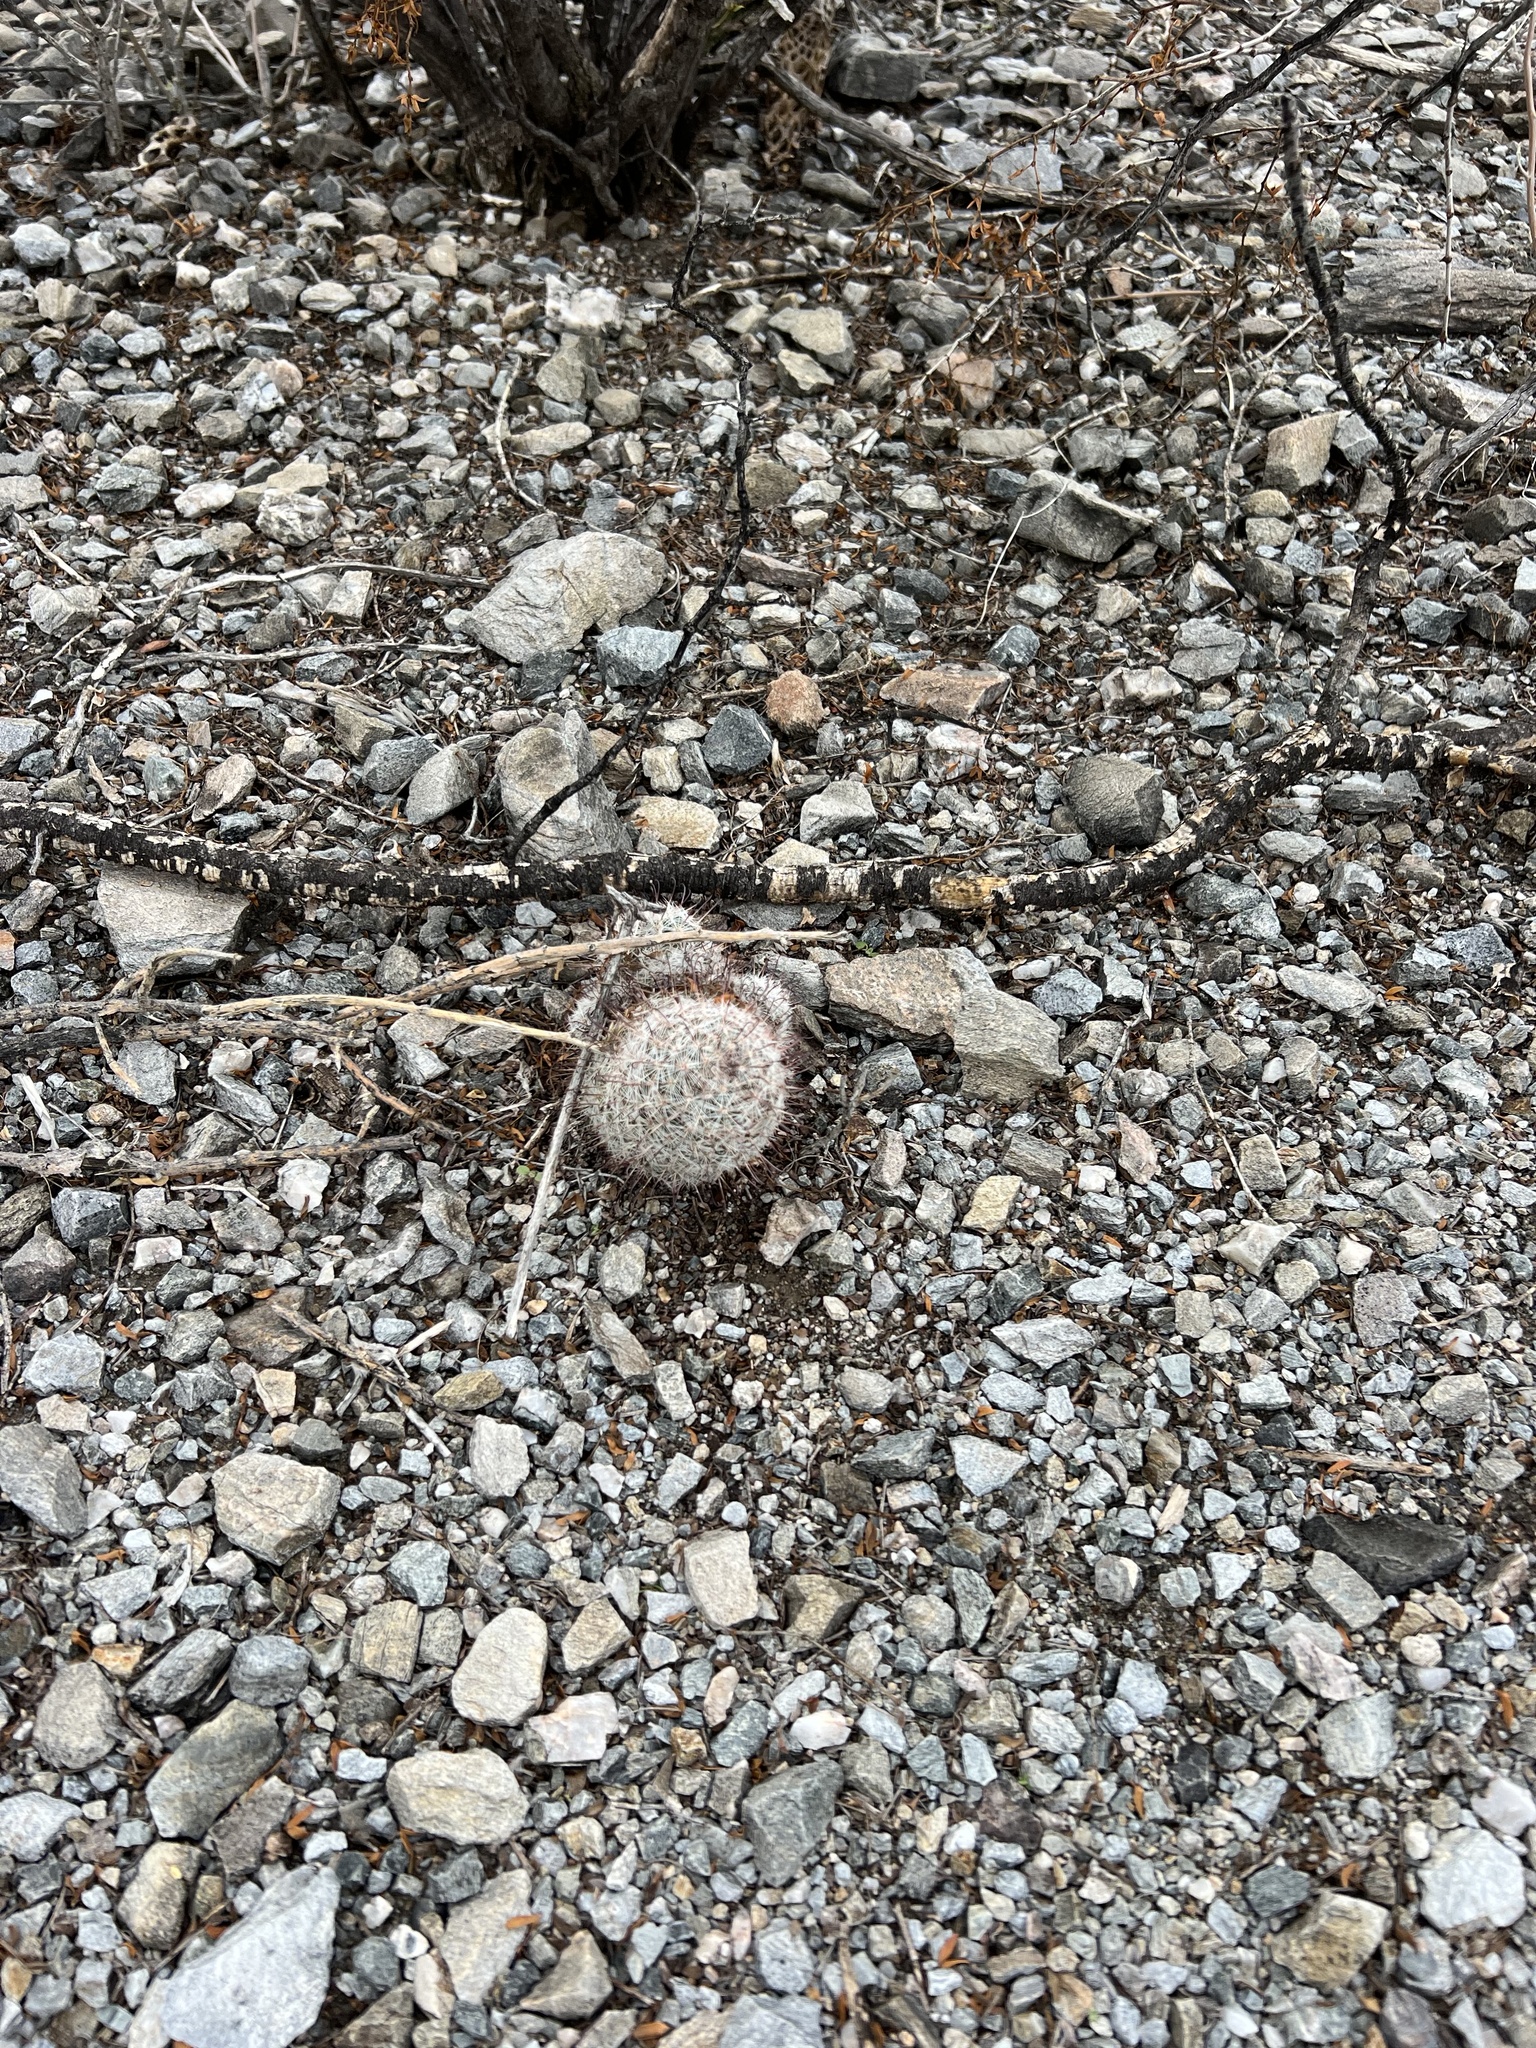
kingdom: Plantae
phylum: Tracheophyta
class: Magnoliopsida
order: Caryophyllales
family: Cactaceae
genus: Cochemiea
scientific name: Cochemiea grahamii
